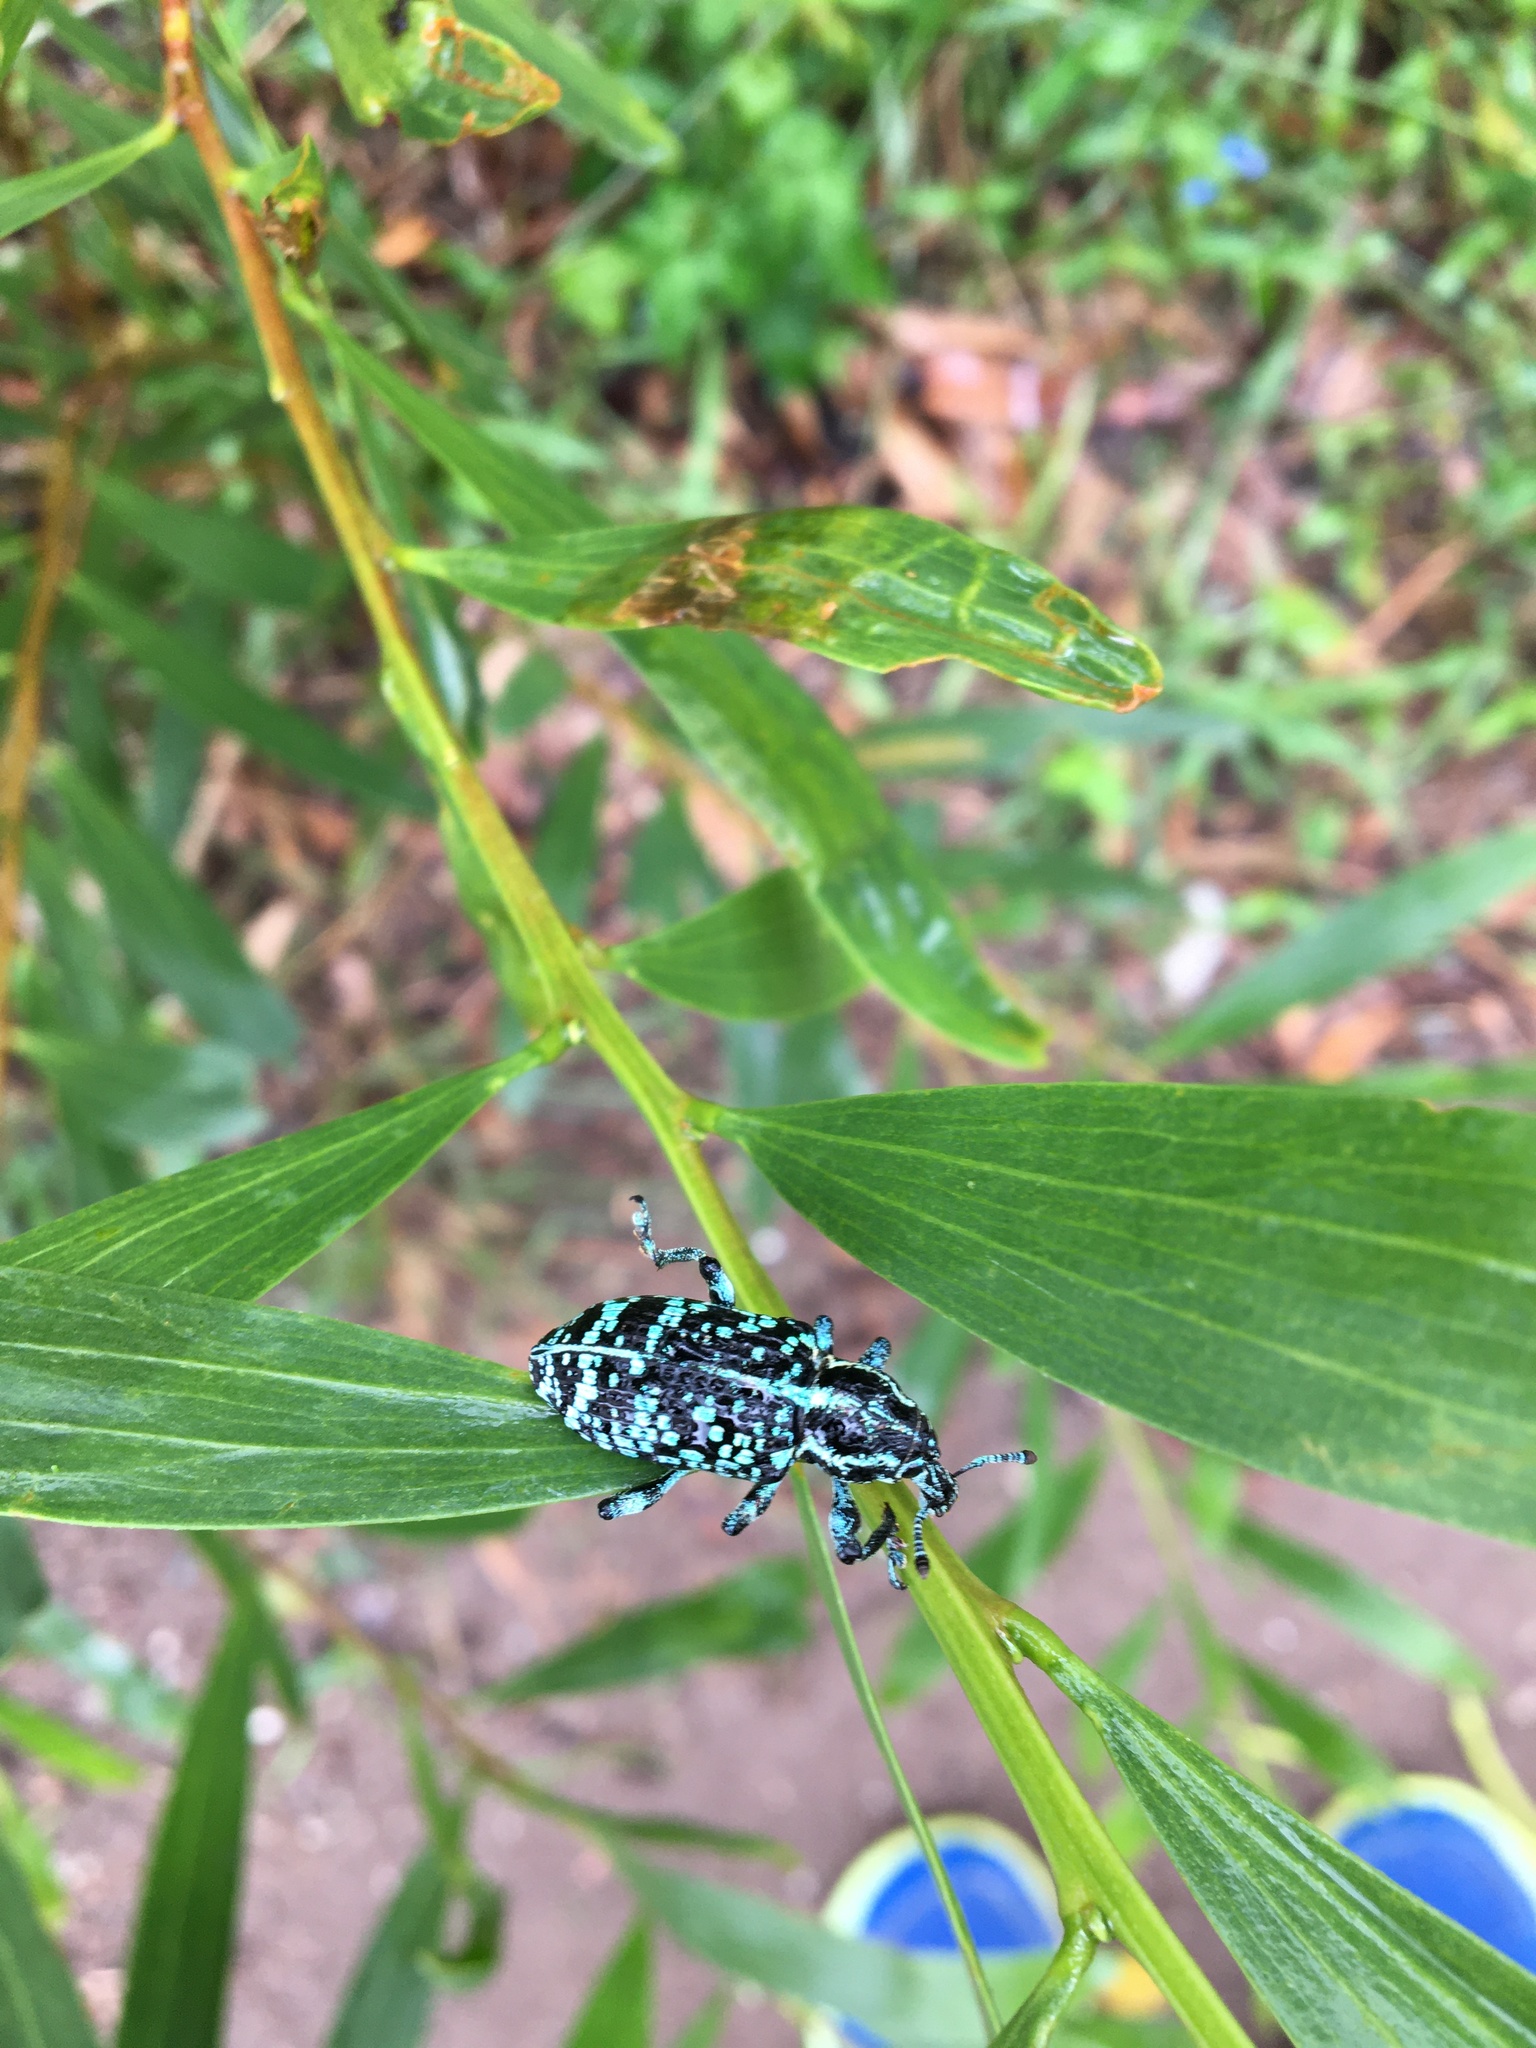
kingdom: Animalia
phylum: Arthropoda
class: Insecta
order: Coleoptera
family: Curculionidae
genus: Chrysolopus
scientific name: Chrysolopus spectabilis
